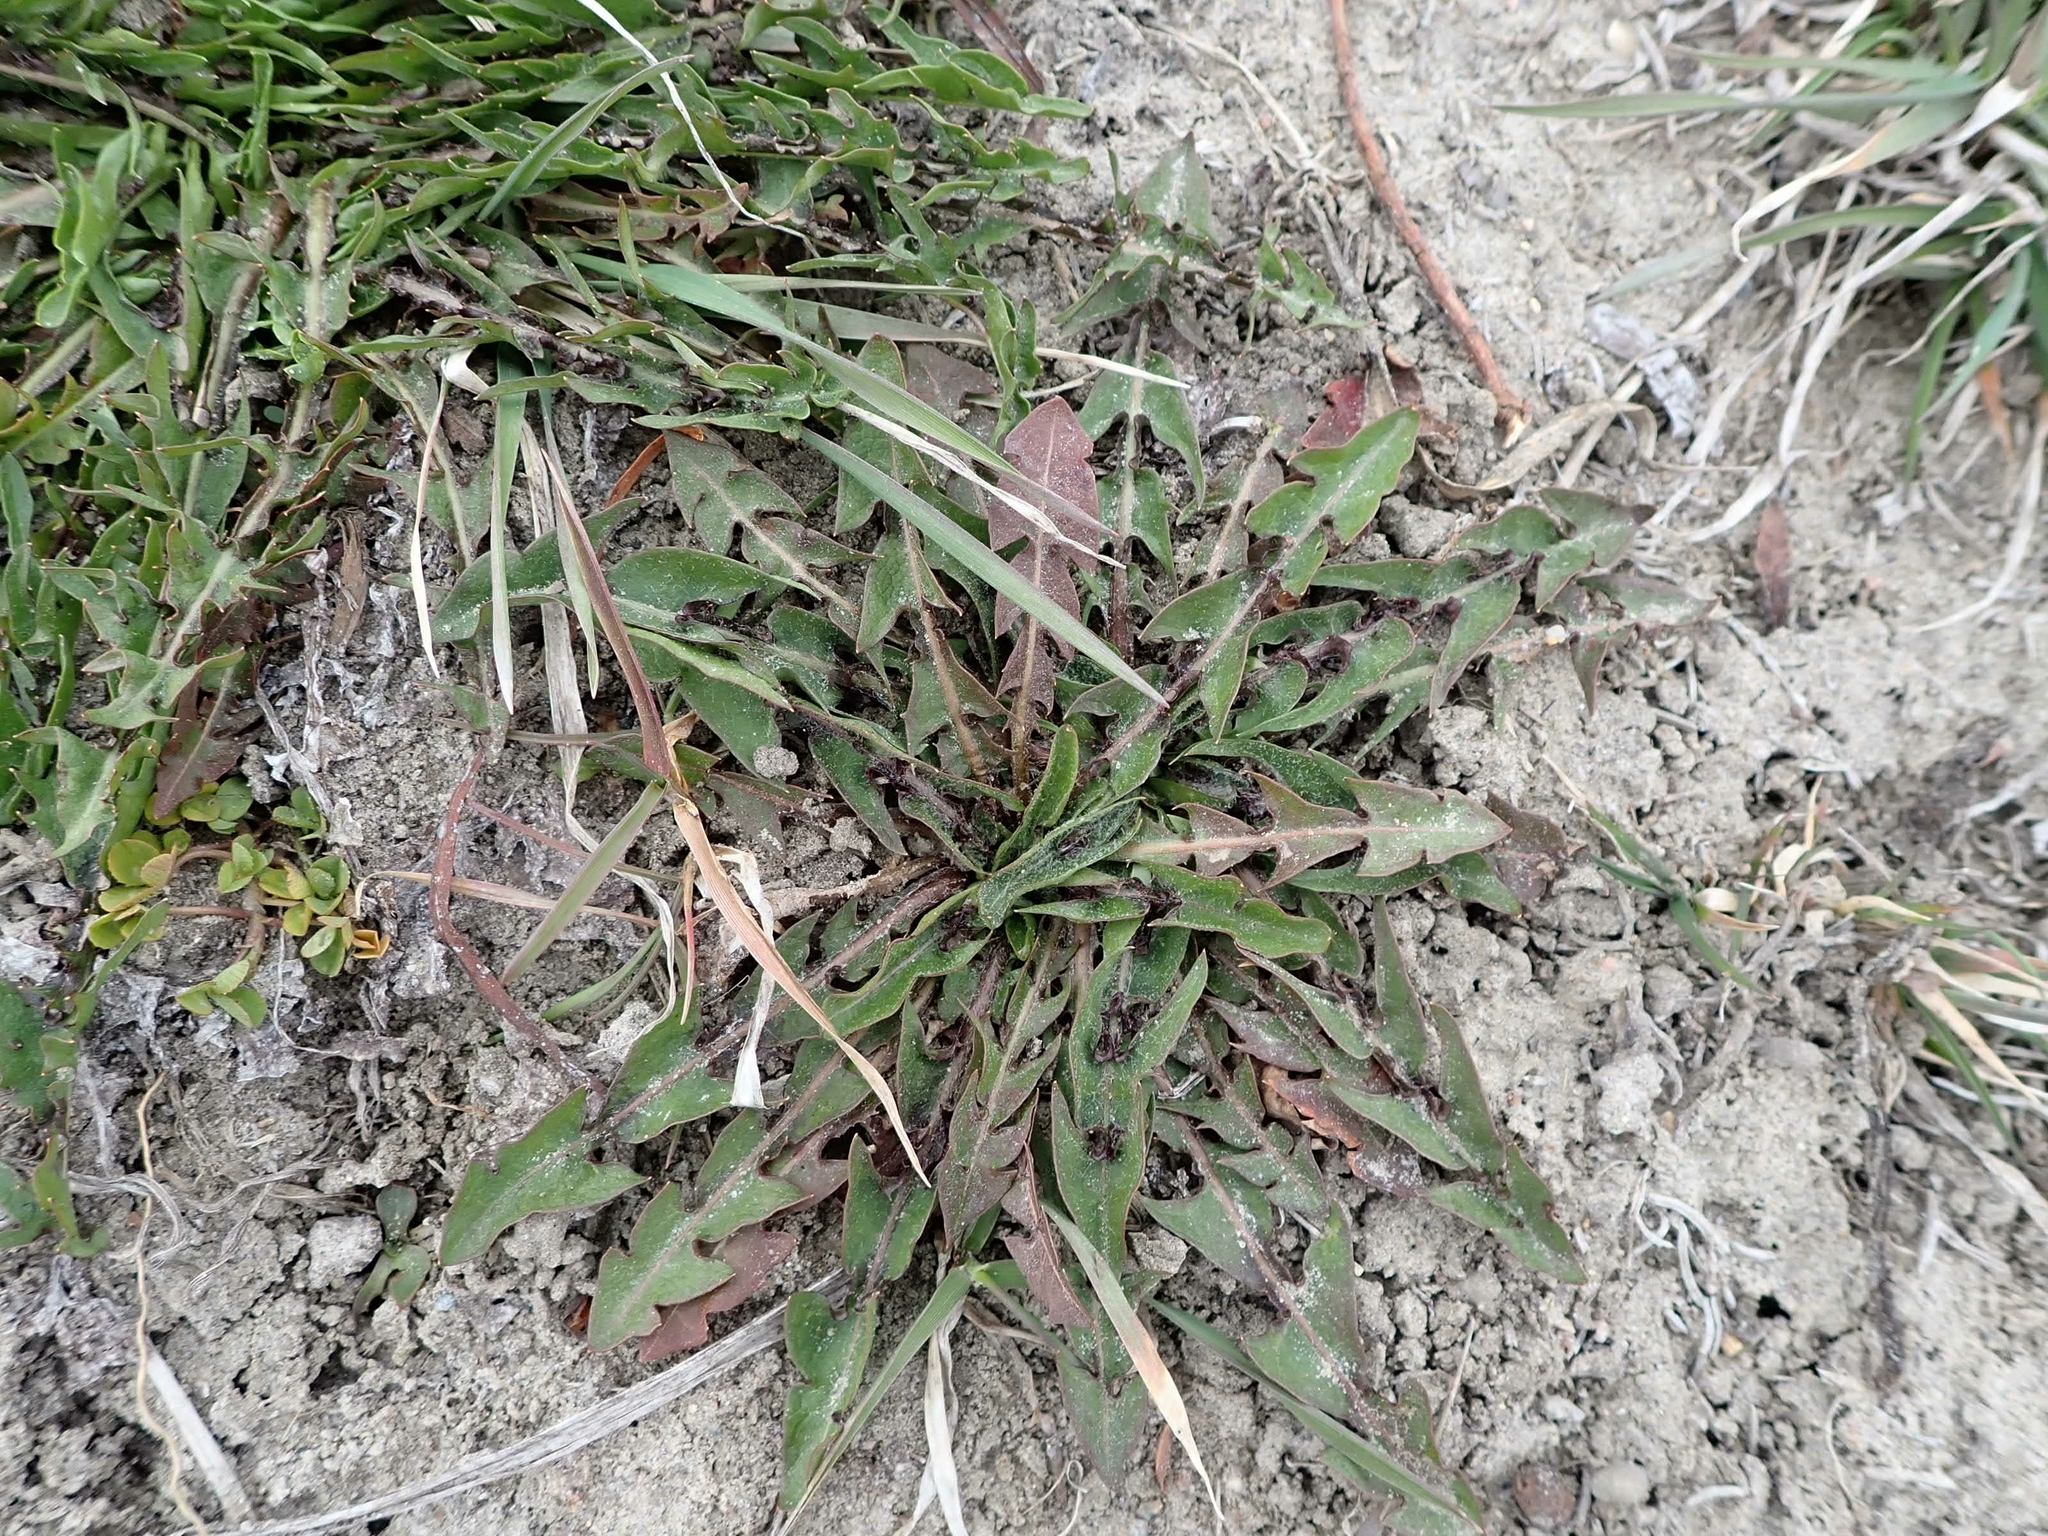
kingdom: Plantae
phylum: Tracheophyta
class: Magnoliopsida
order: Asterales
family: Asteraceae
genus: Taraxacum
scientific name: Taraxacum officinale
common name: Common dandelion
